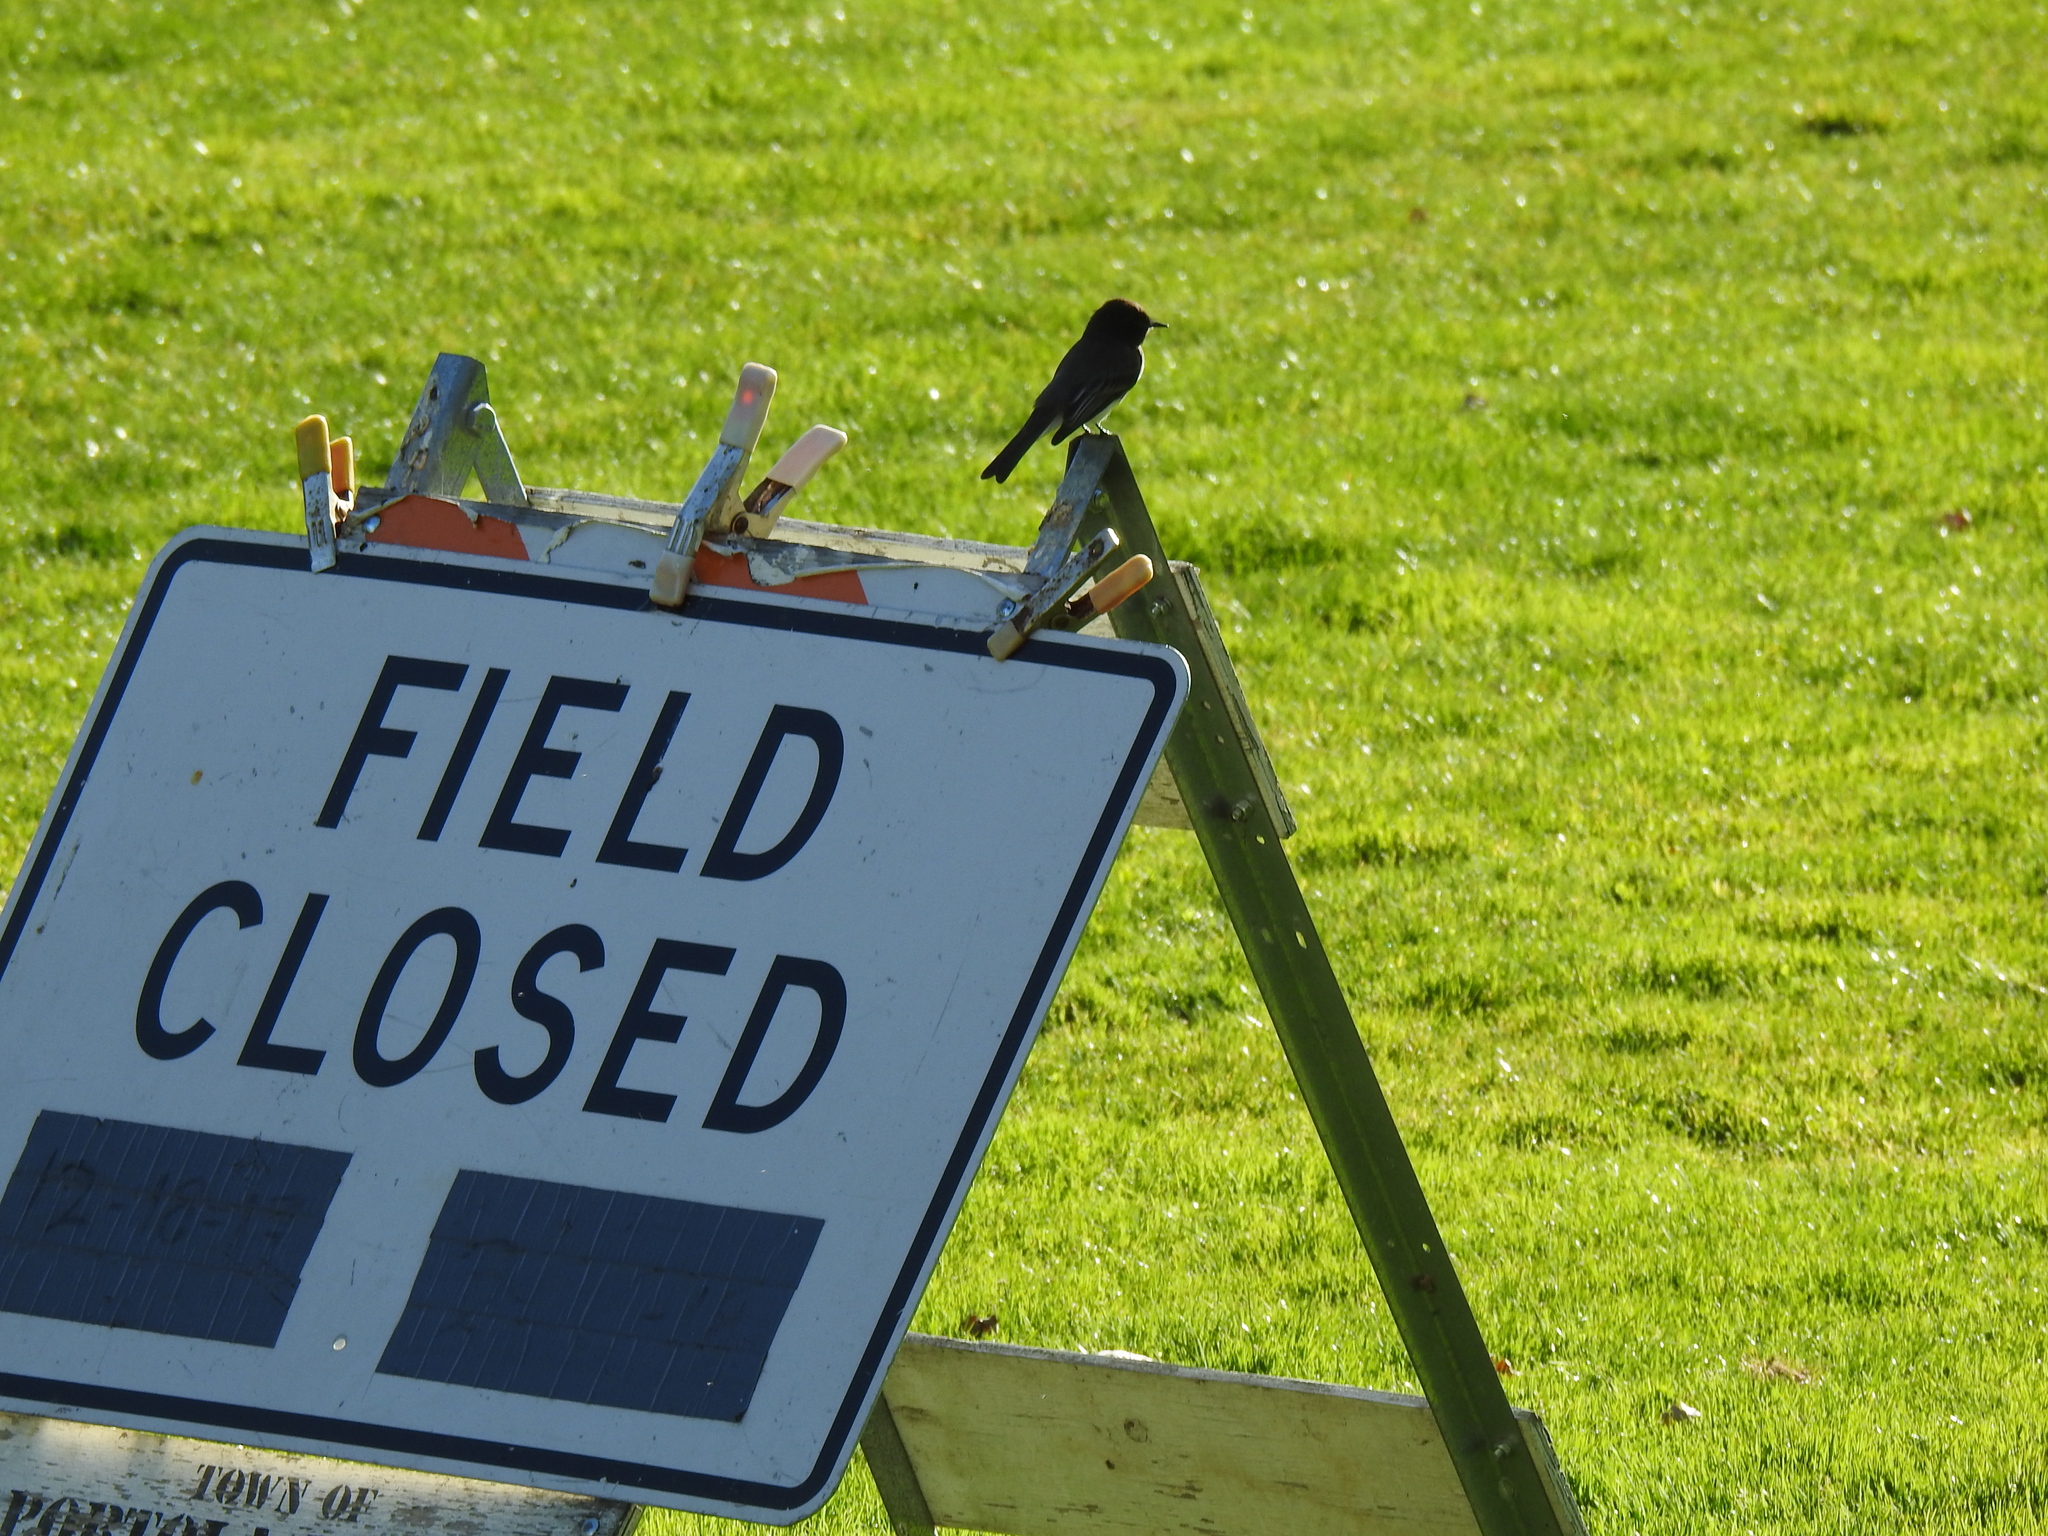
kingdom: Animalia
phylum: Chordata
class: Aves
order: Passeriformes
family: Tyrannidae
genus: Sayornis
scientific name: Sayornis nigricans
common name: Black phoebe
